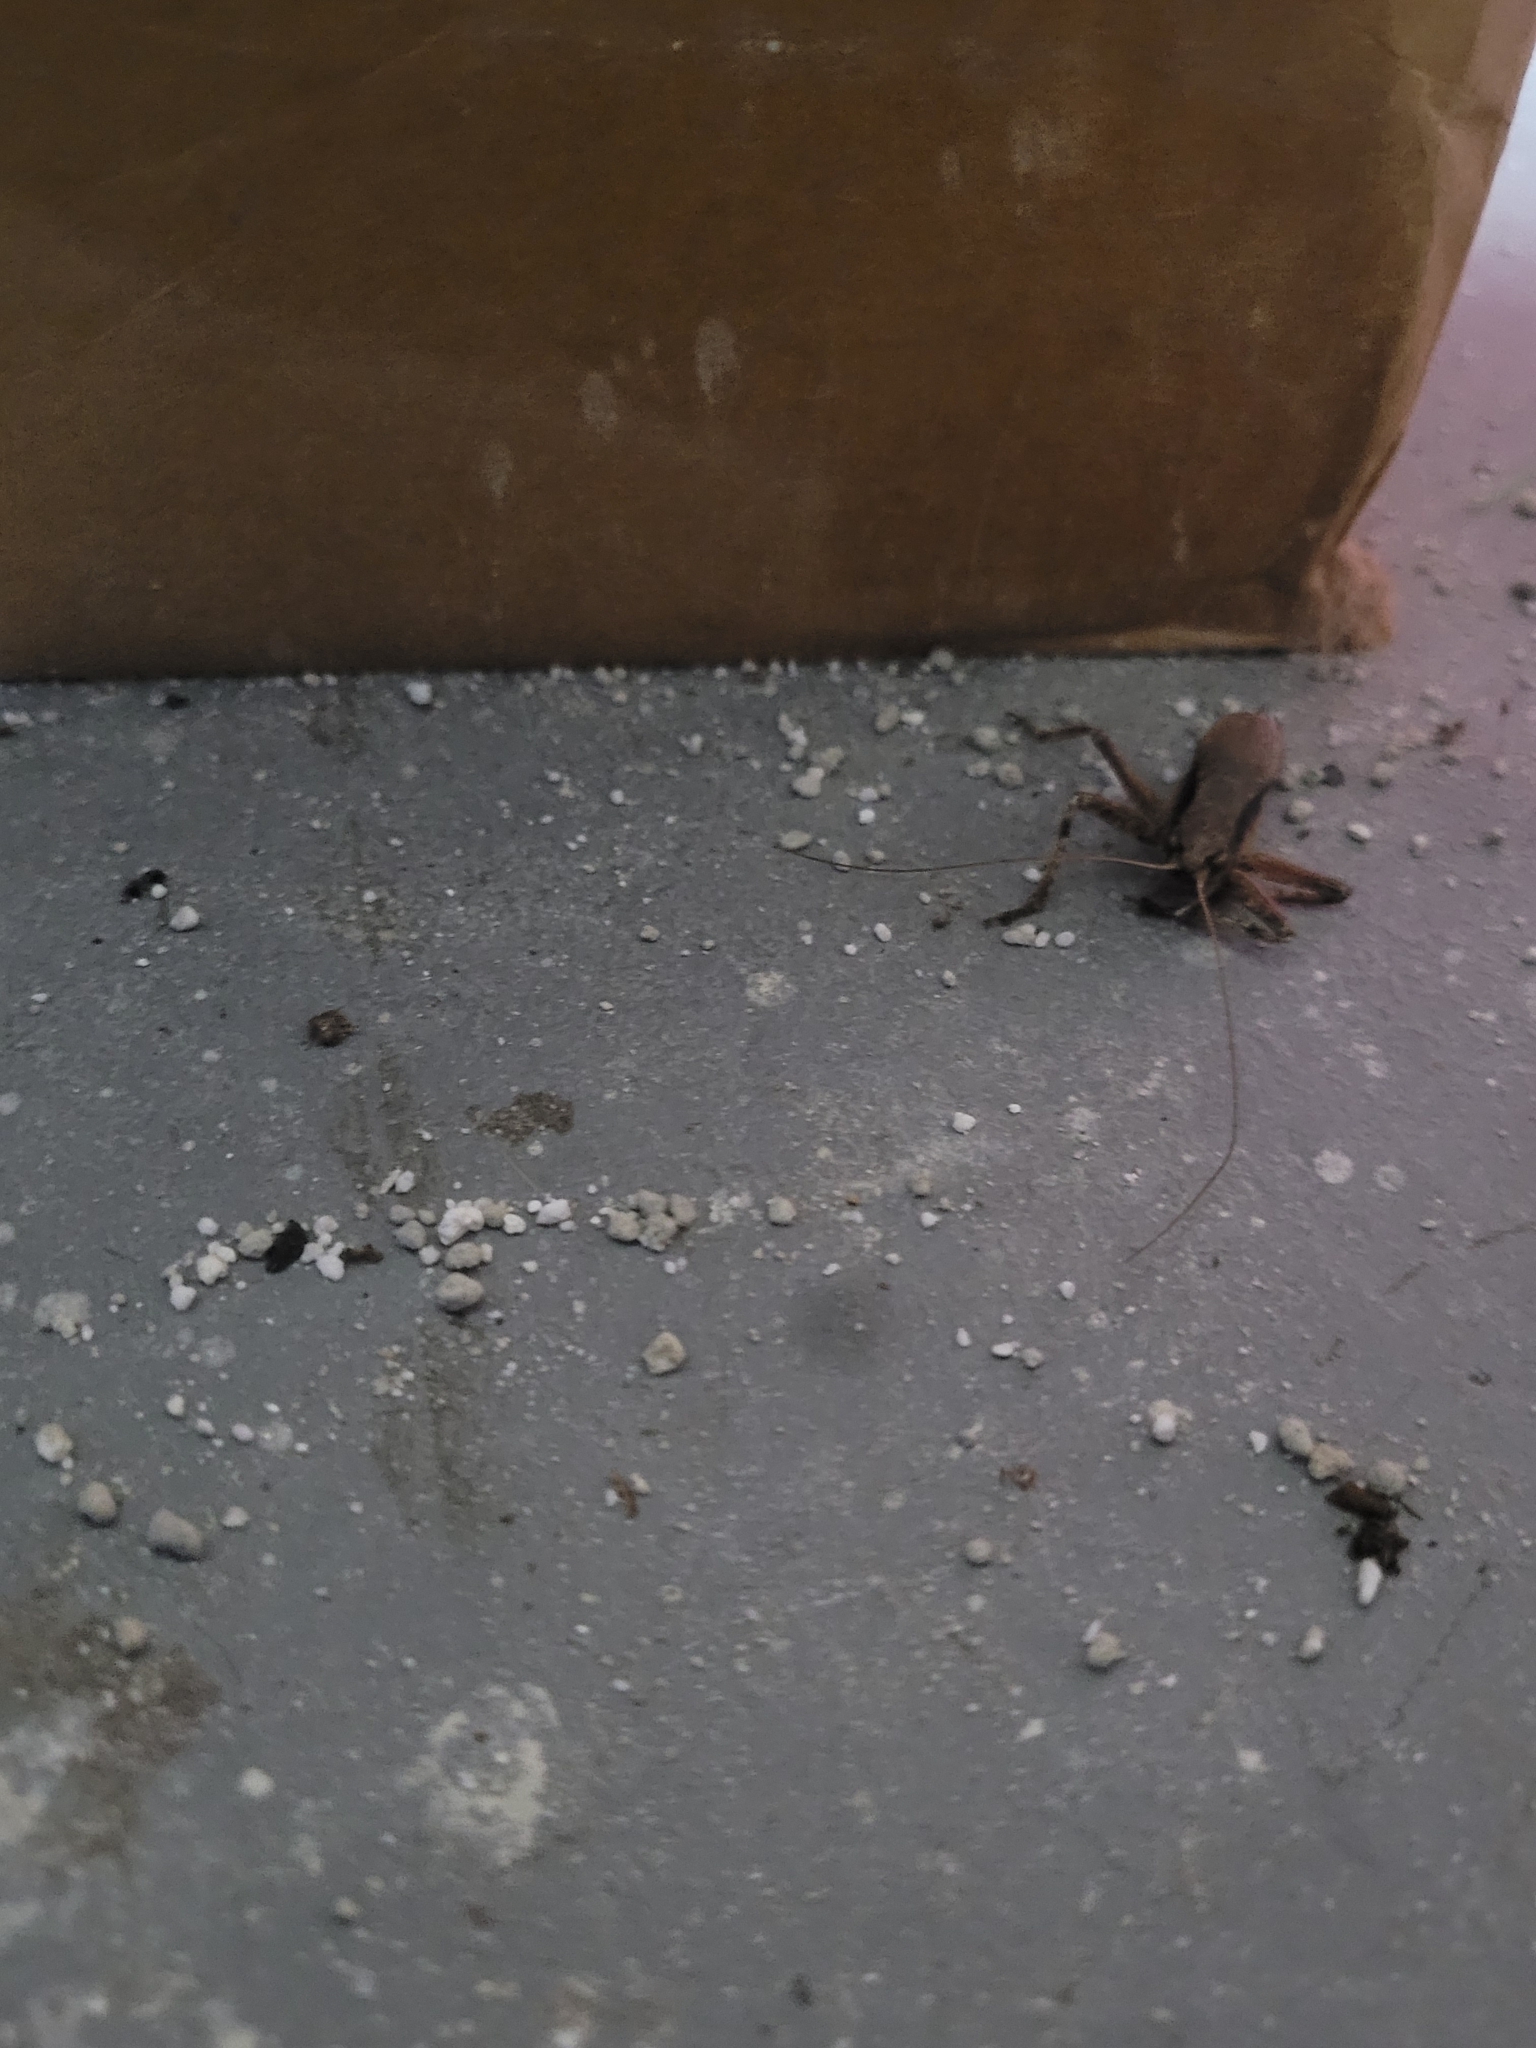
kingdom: Animalia
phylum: Arthropoda
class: Insecta
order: Orthoptera
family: Tettigoniidae
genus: Atlanticus
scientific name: Atlanticus gibbosus
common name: Robust shield-bearer
